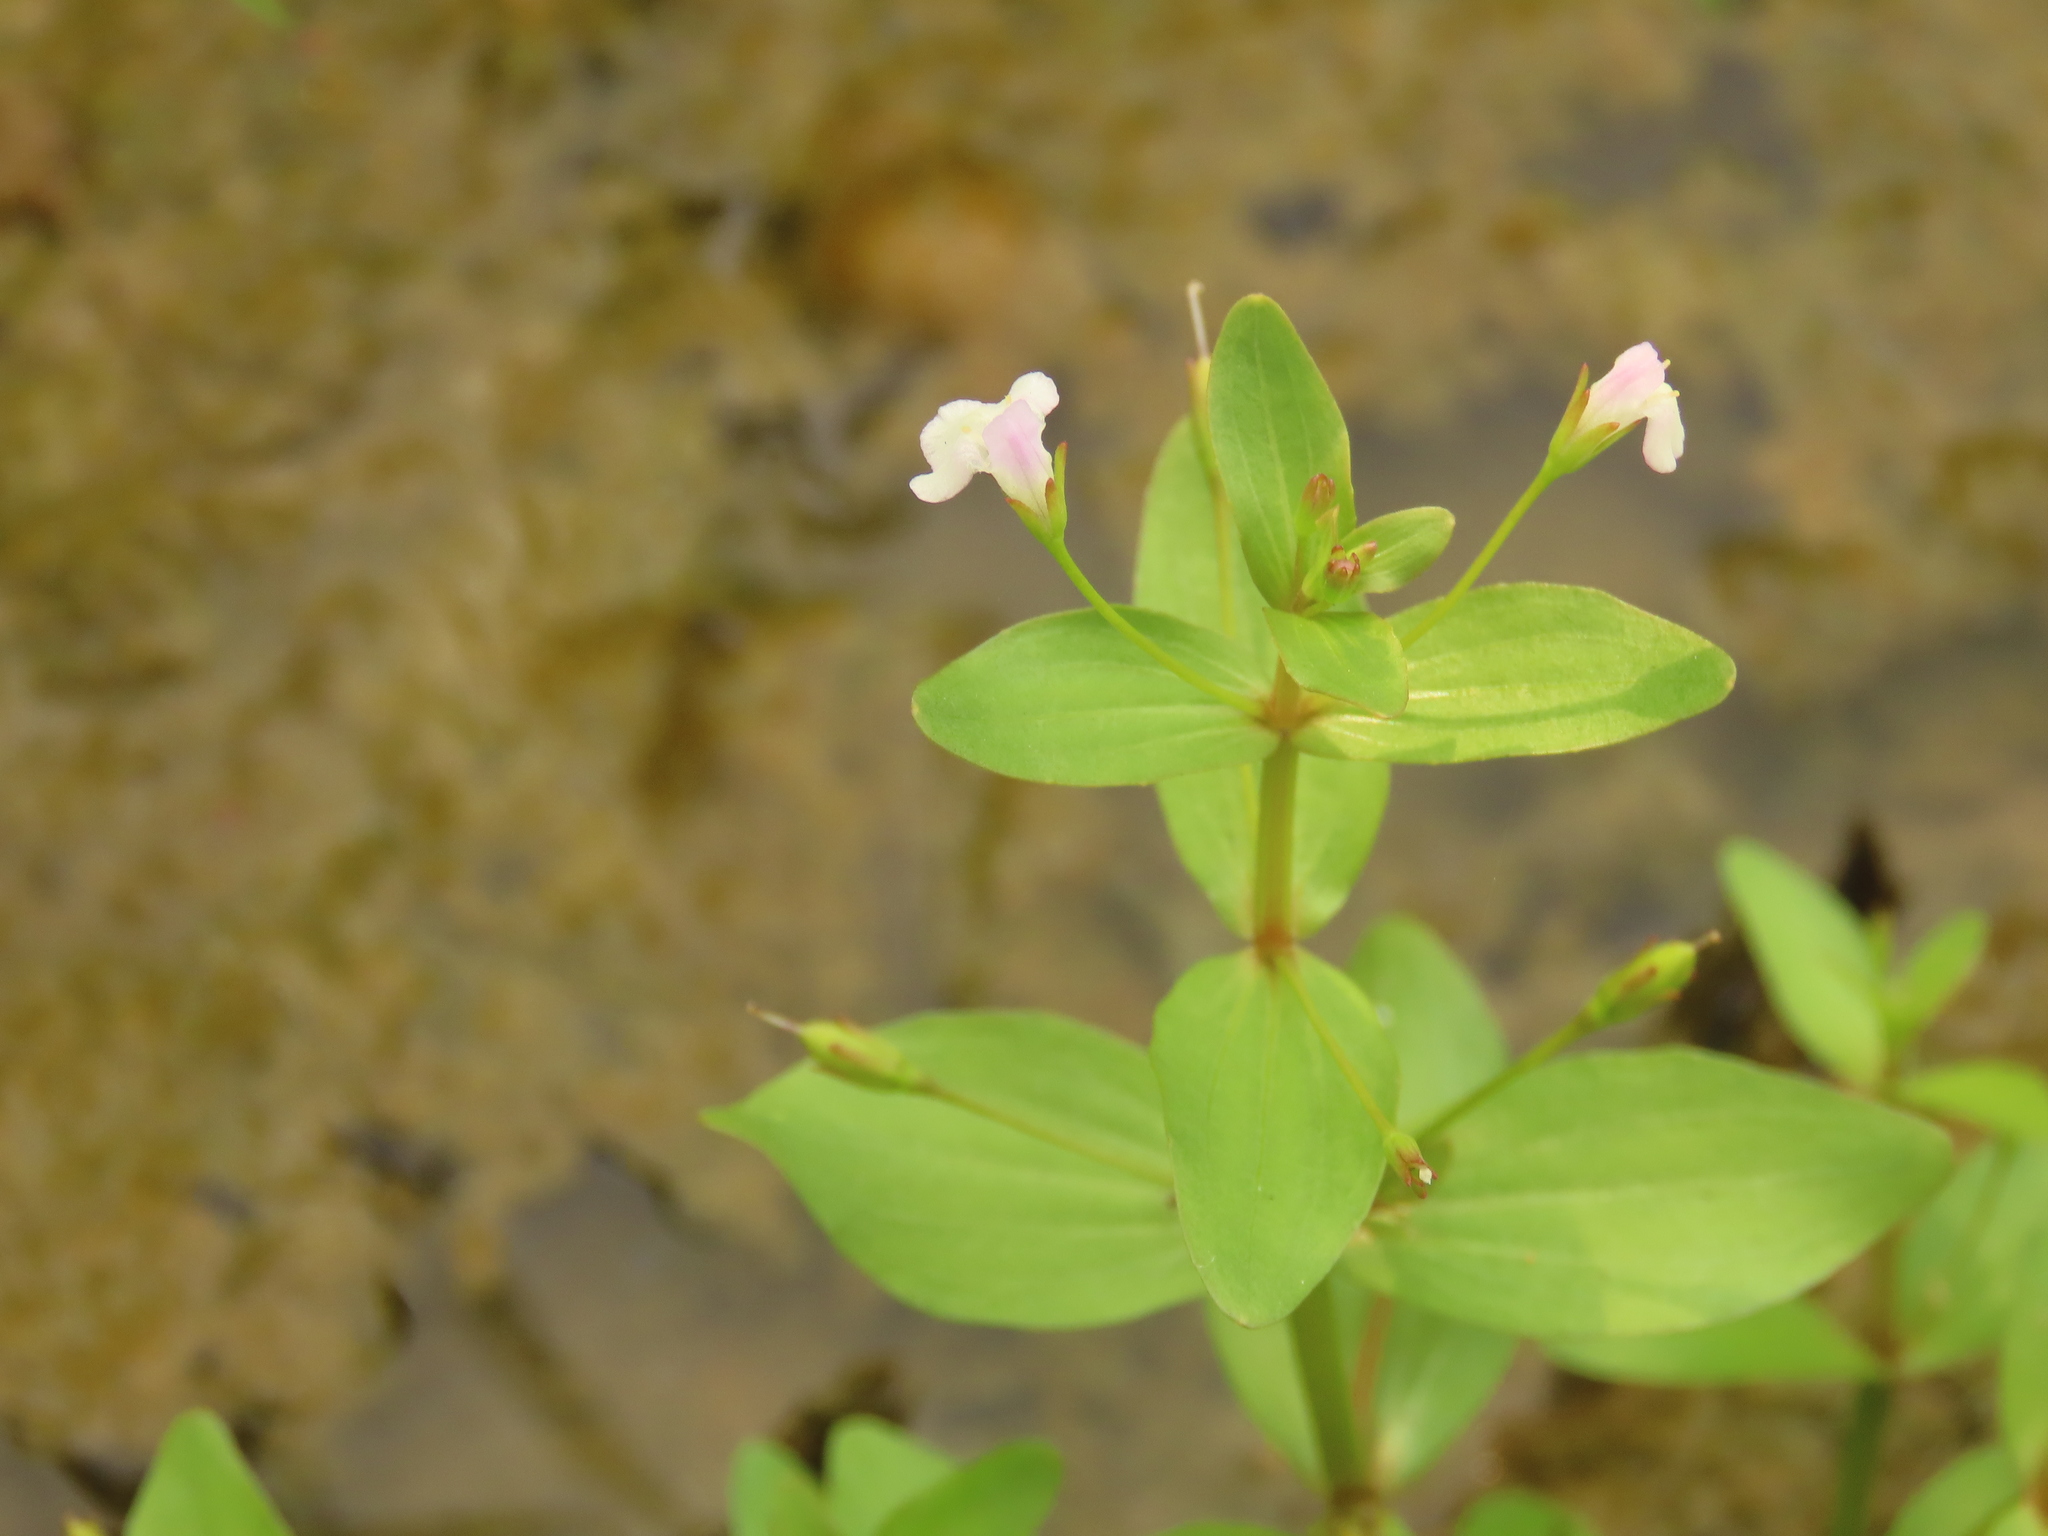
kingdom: Plantae
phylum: Tracheophyta
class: Magnoliopsida
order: Lamiales
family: Linderniaceae
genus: Lindernia
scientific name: Lindernia procumbens
